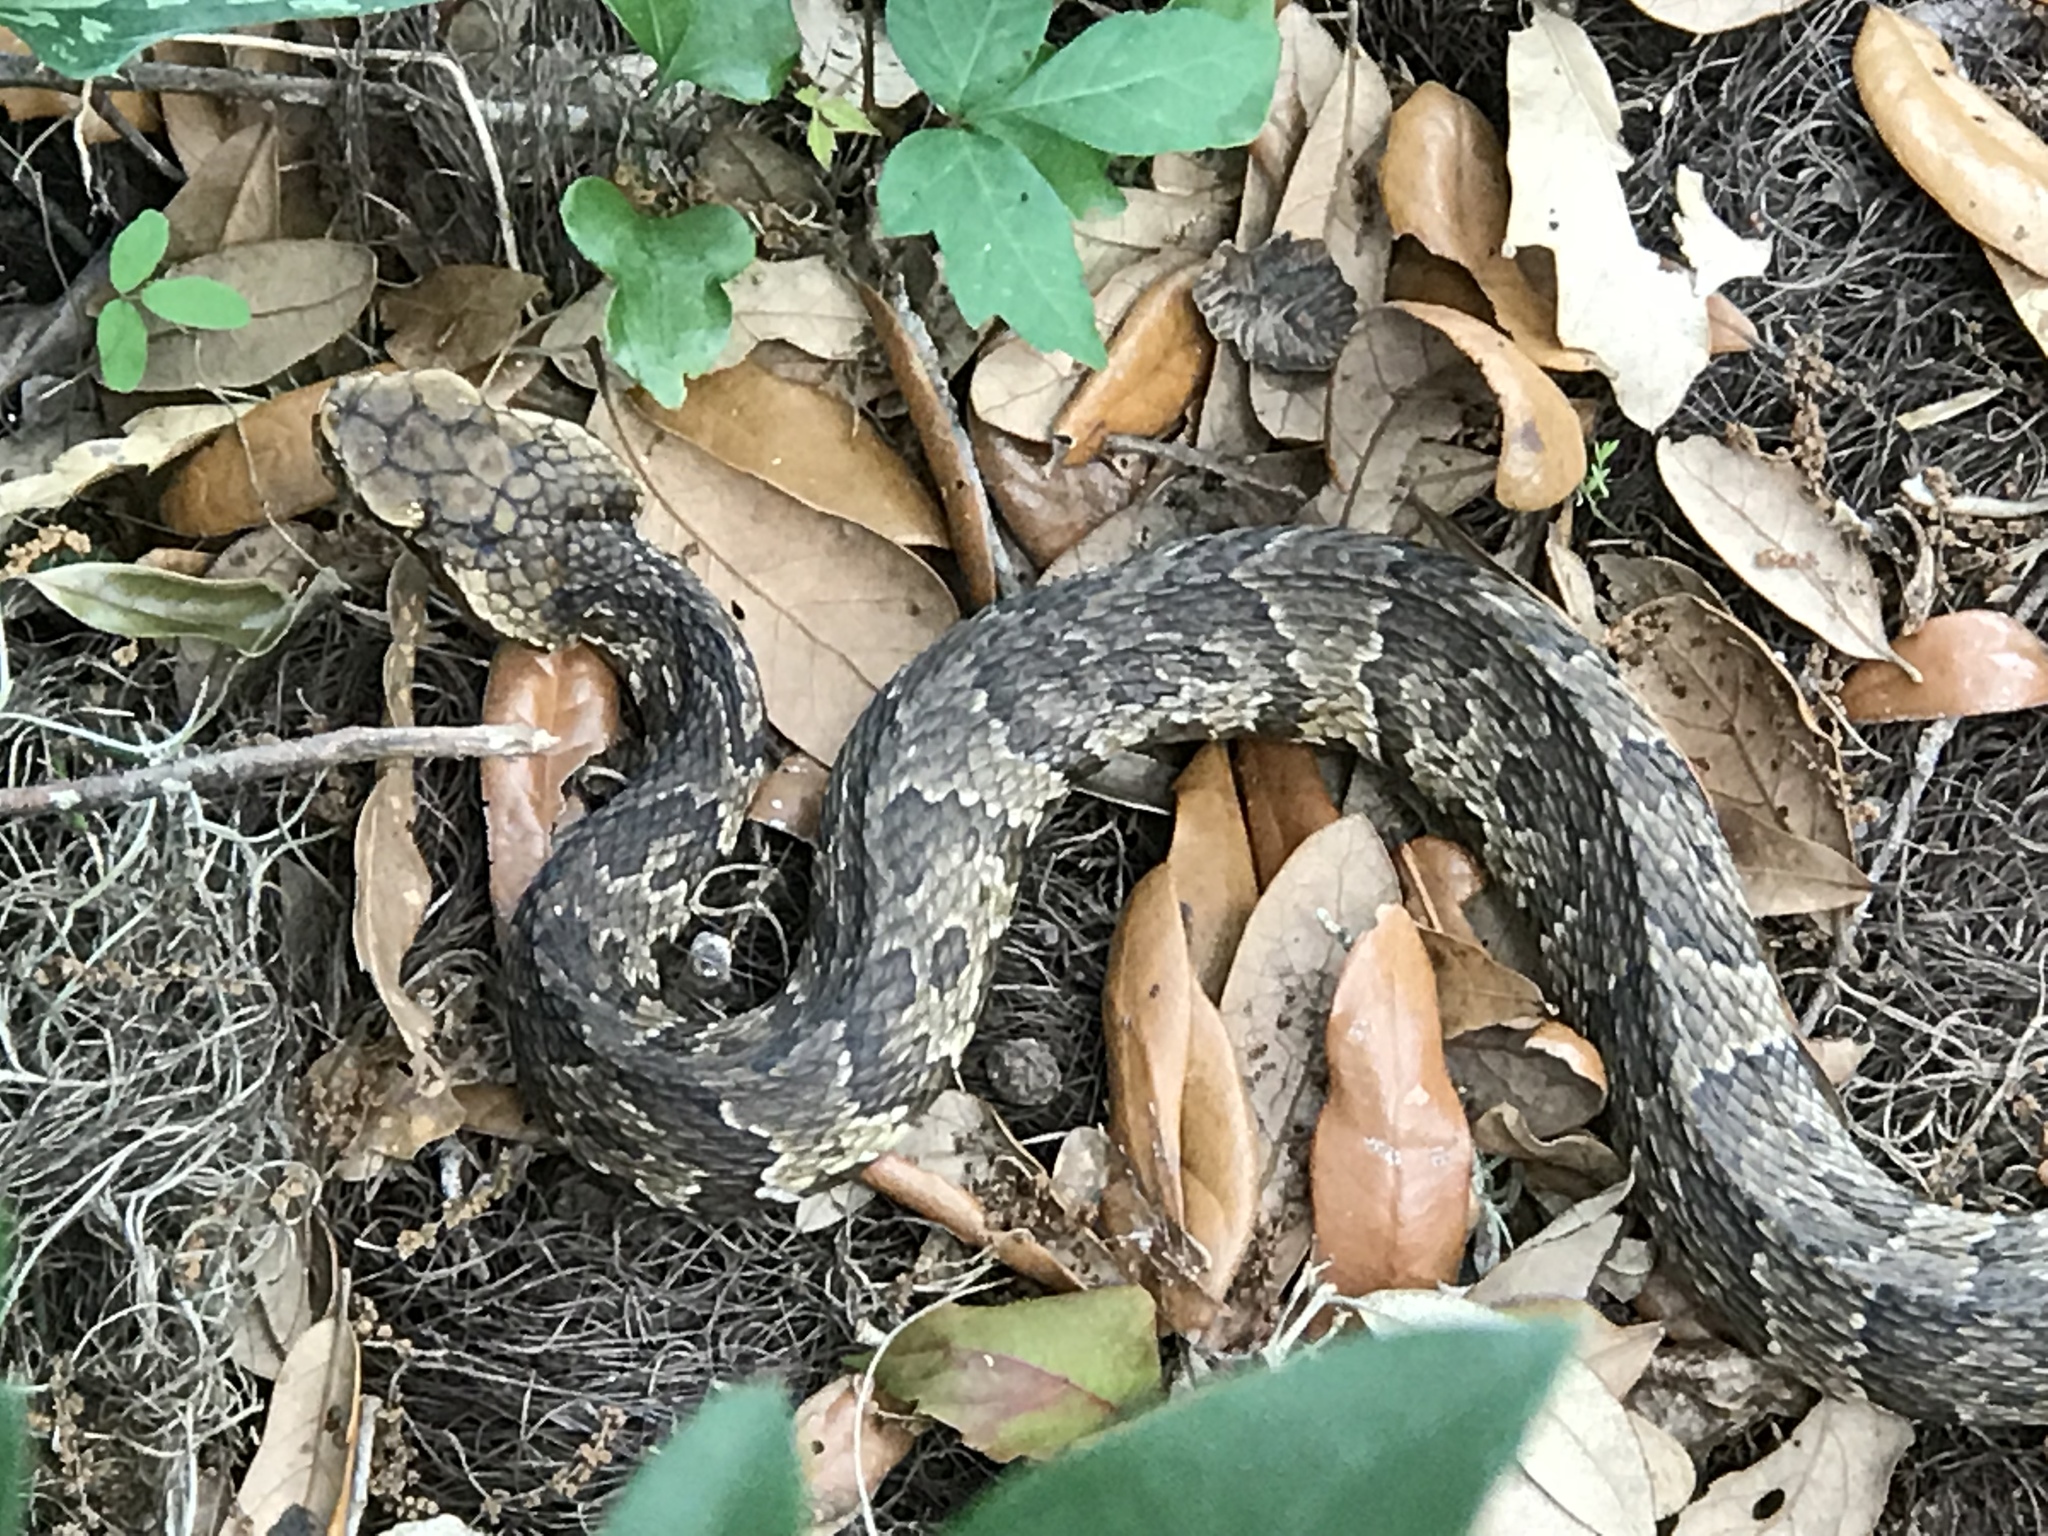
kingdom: Animalia
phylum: Chordata
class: Squamata
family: Viperidae
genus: Agkistrodon
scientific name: Agkistrodon conanti
